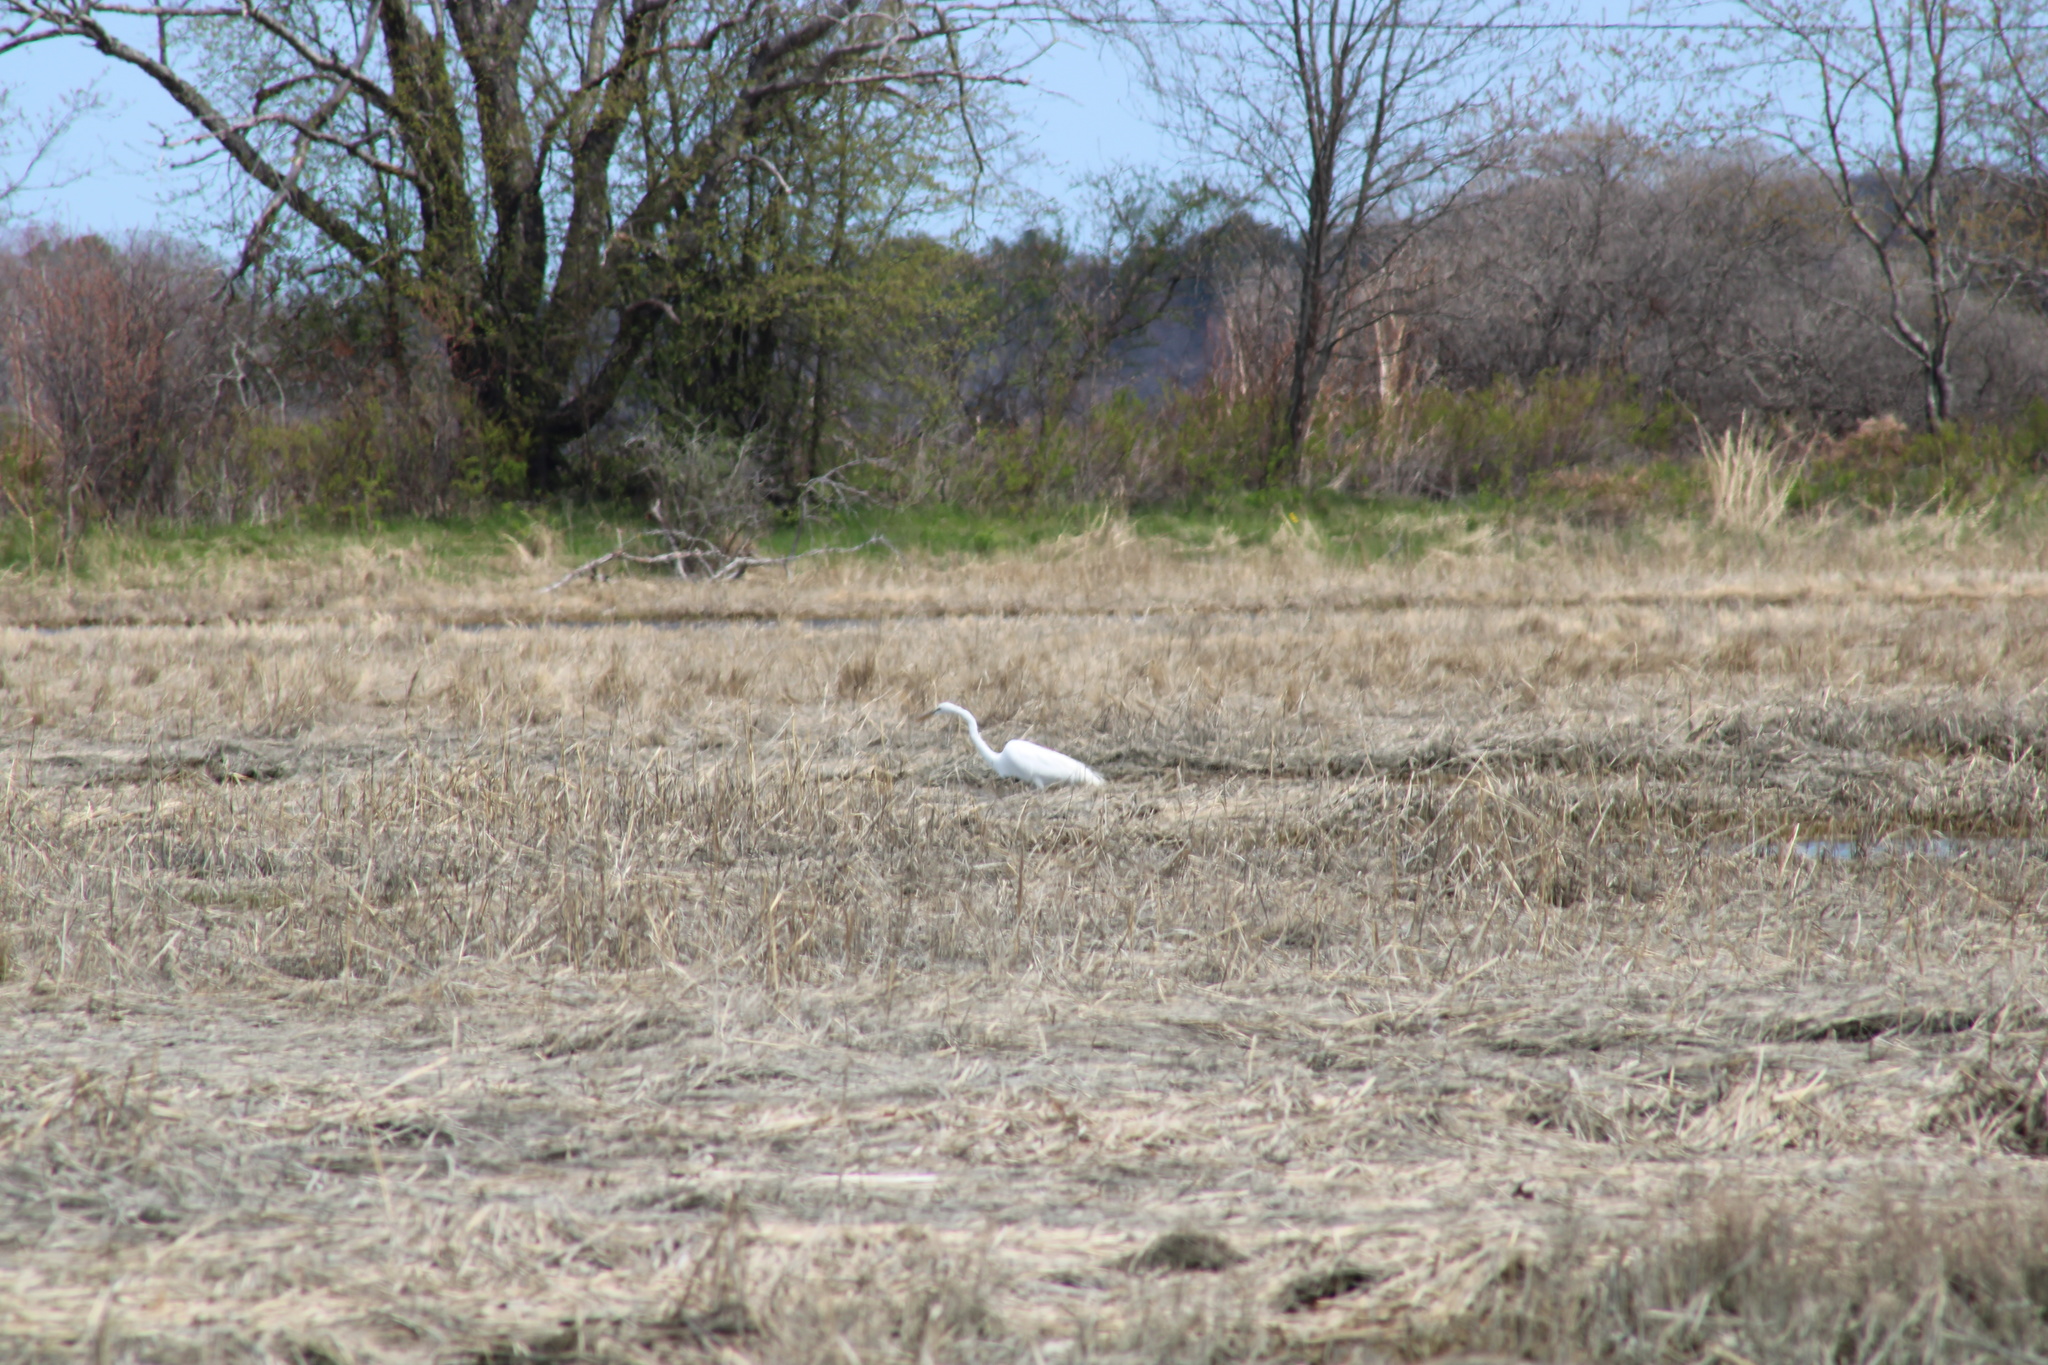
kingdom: Animalia
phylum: Chordata
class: Aves
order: Pelecaniformes
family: Ardeidae
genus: Ardea
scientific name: Ardea alba
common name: Great egret
